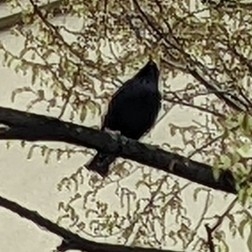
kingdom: Animalia
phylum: Chordata
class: Aves
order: Passeriformes
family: Sturnidae
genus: Sturnus
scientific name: Sturnus vulgaris
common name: Common starling
